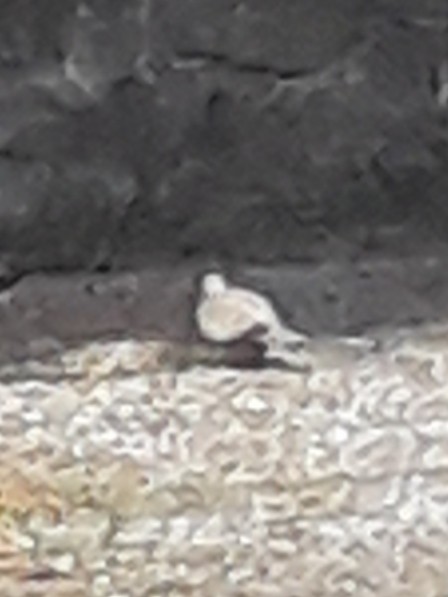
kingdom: Animalia
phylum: Chordata
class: Aves
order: Columbiformes
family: Columbidae
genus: Streptopelia
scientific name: Streptopelia decaocto
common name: Eurasian collared dove
